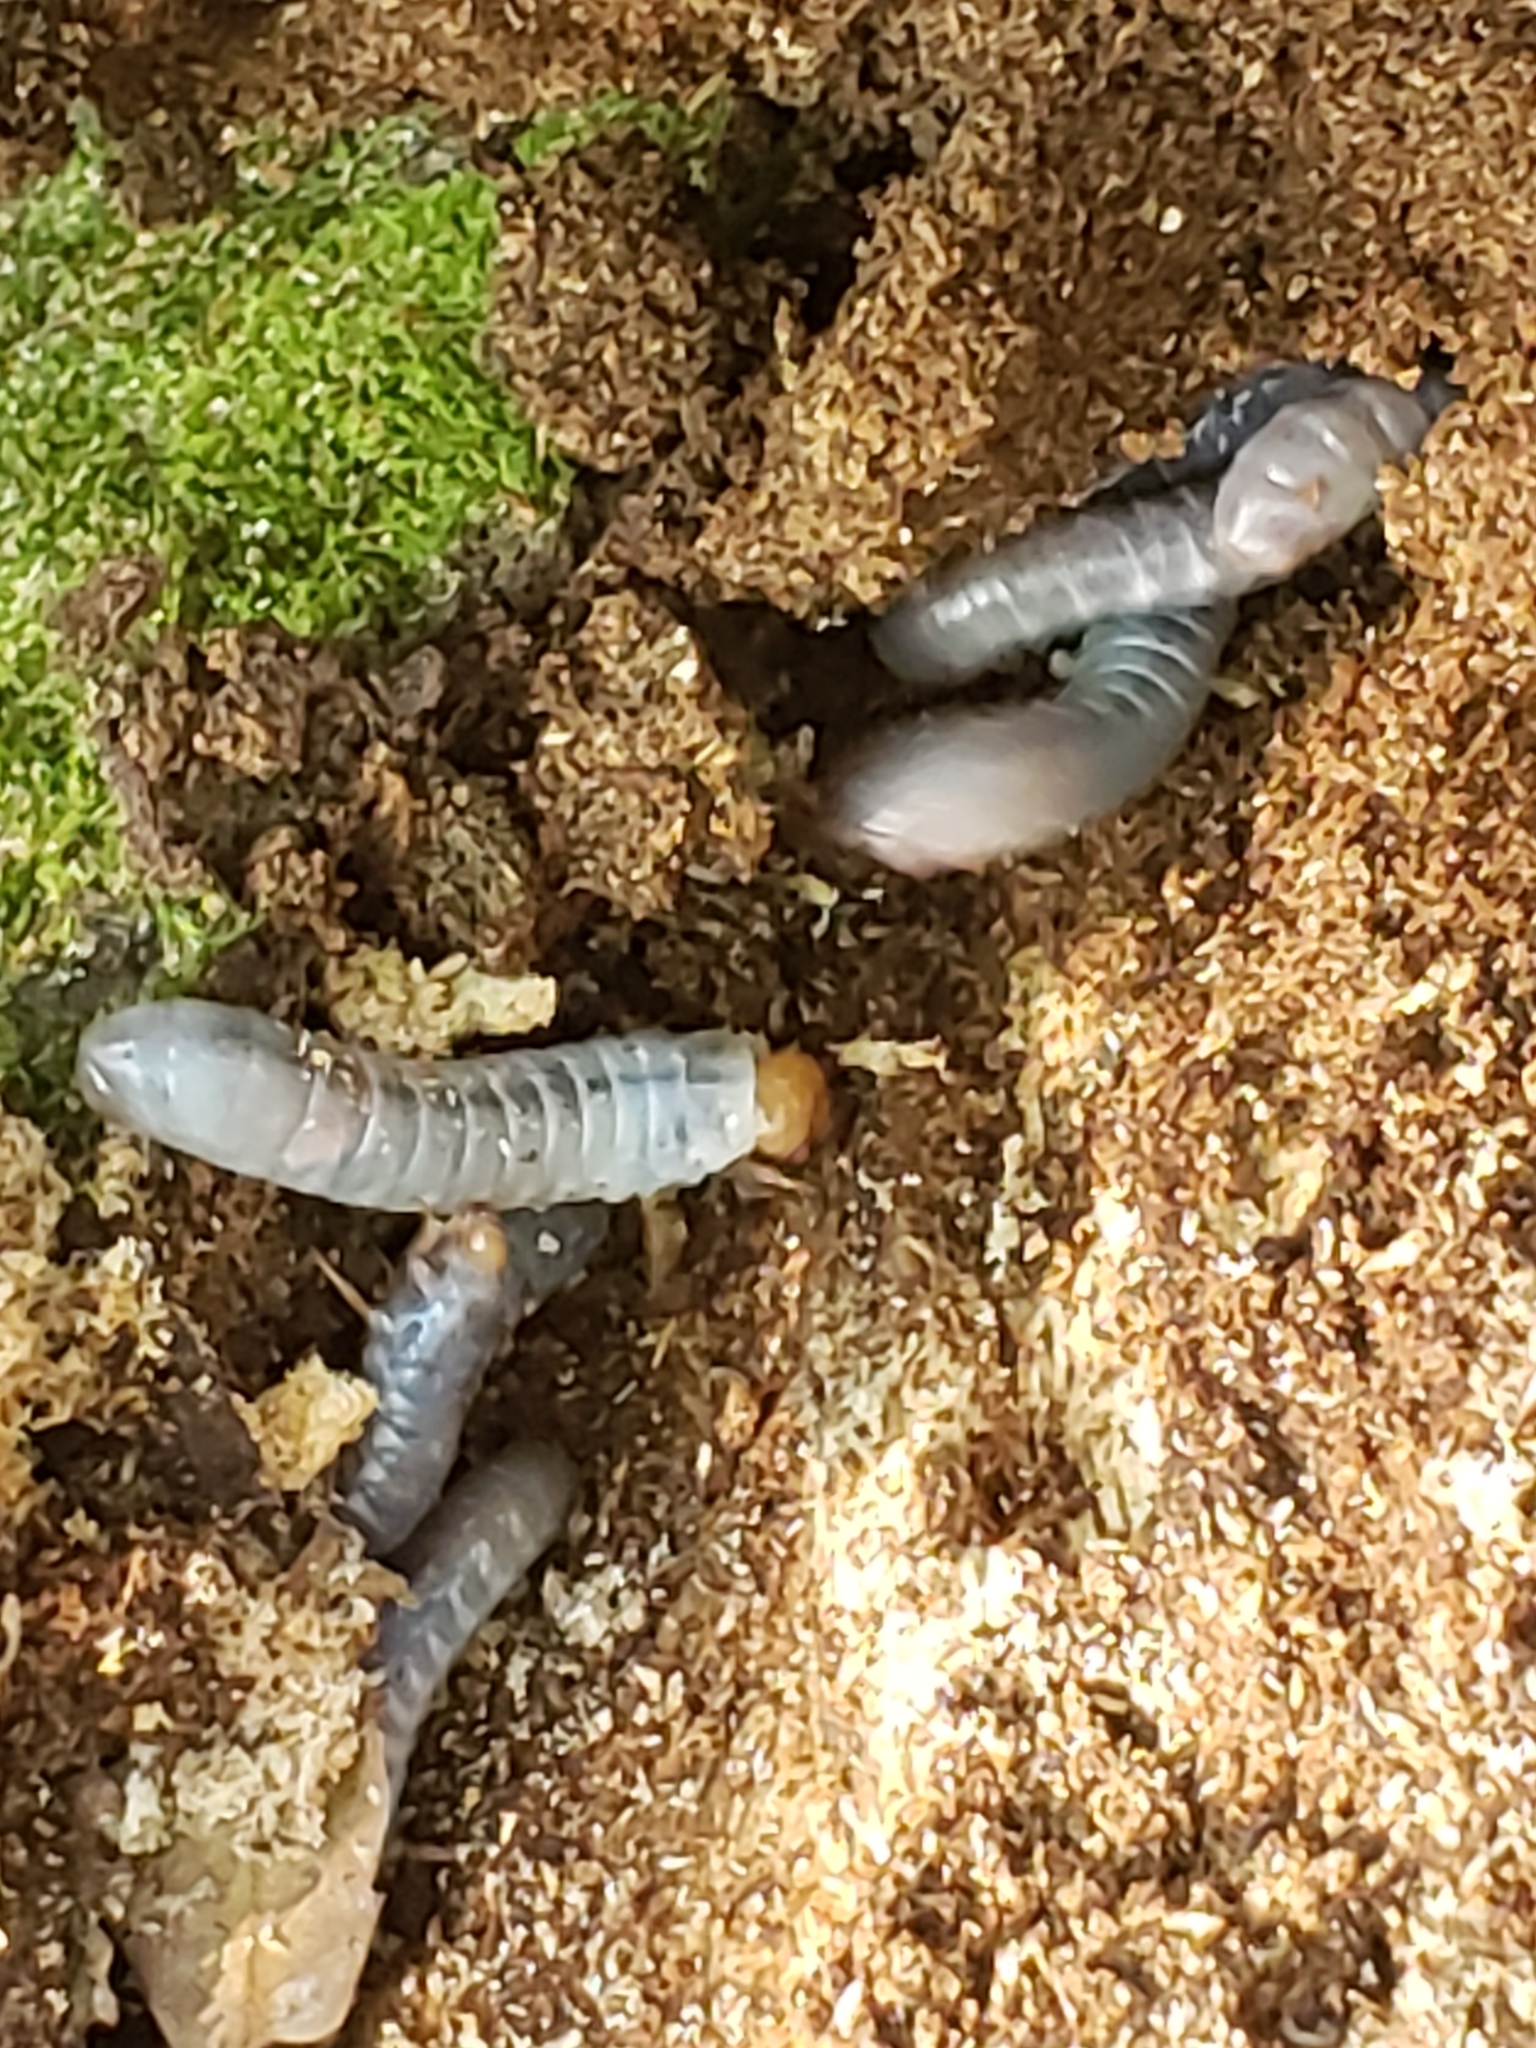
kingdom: Animalia
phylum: Arthropoda
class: Insecta
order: Coleoptera
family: Passalidae
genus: Odontotaenius
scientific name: Odontotaenius disjunctus
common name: Patent leather beetle
